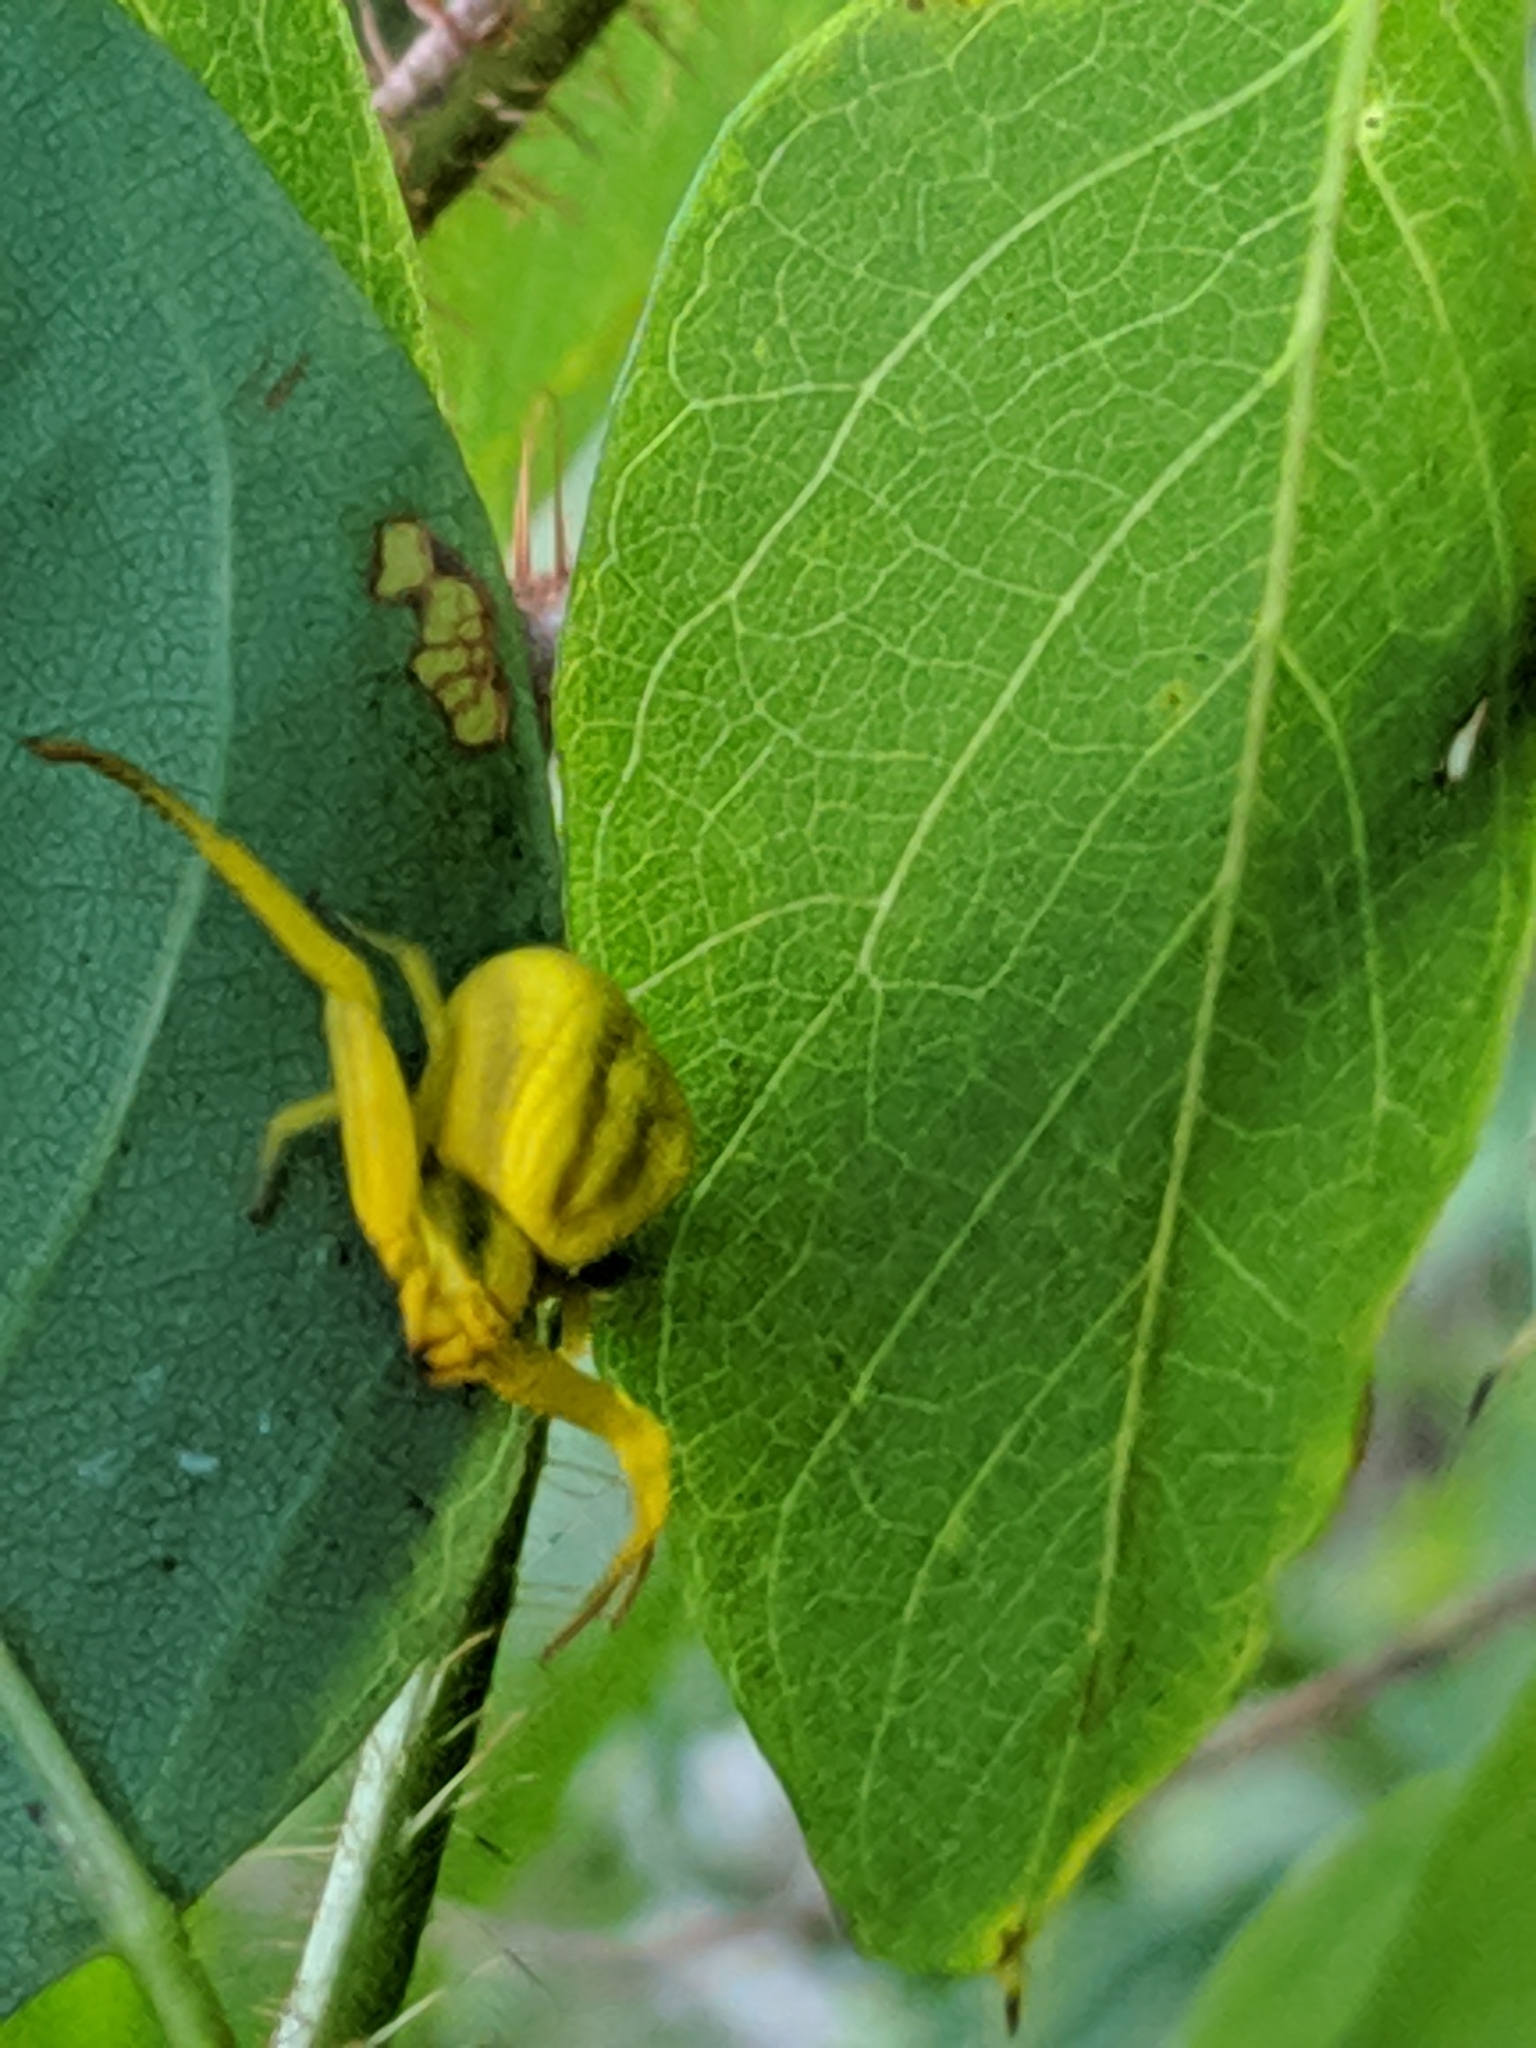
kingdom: Animalia
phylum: Arthropoda
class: Arachnida
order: Araneae
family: Thomisidae
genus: Misumenoides
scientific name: Misumenoides formosipes
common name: White-banded crab spider
